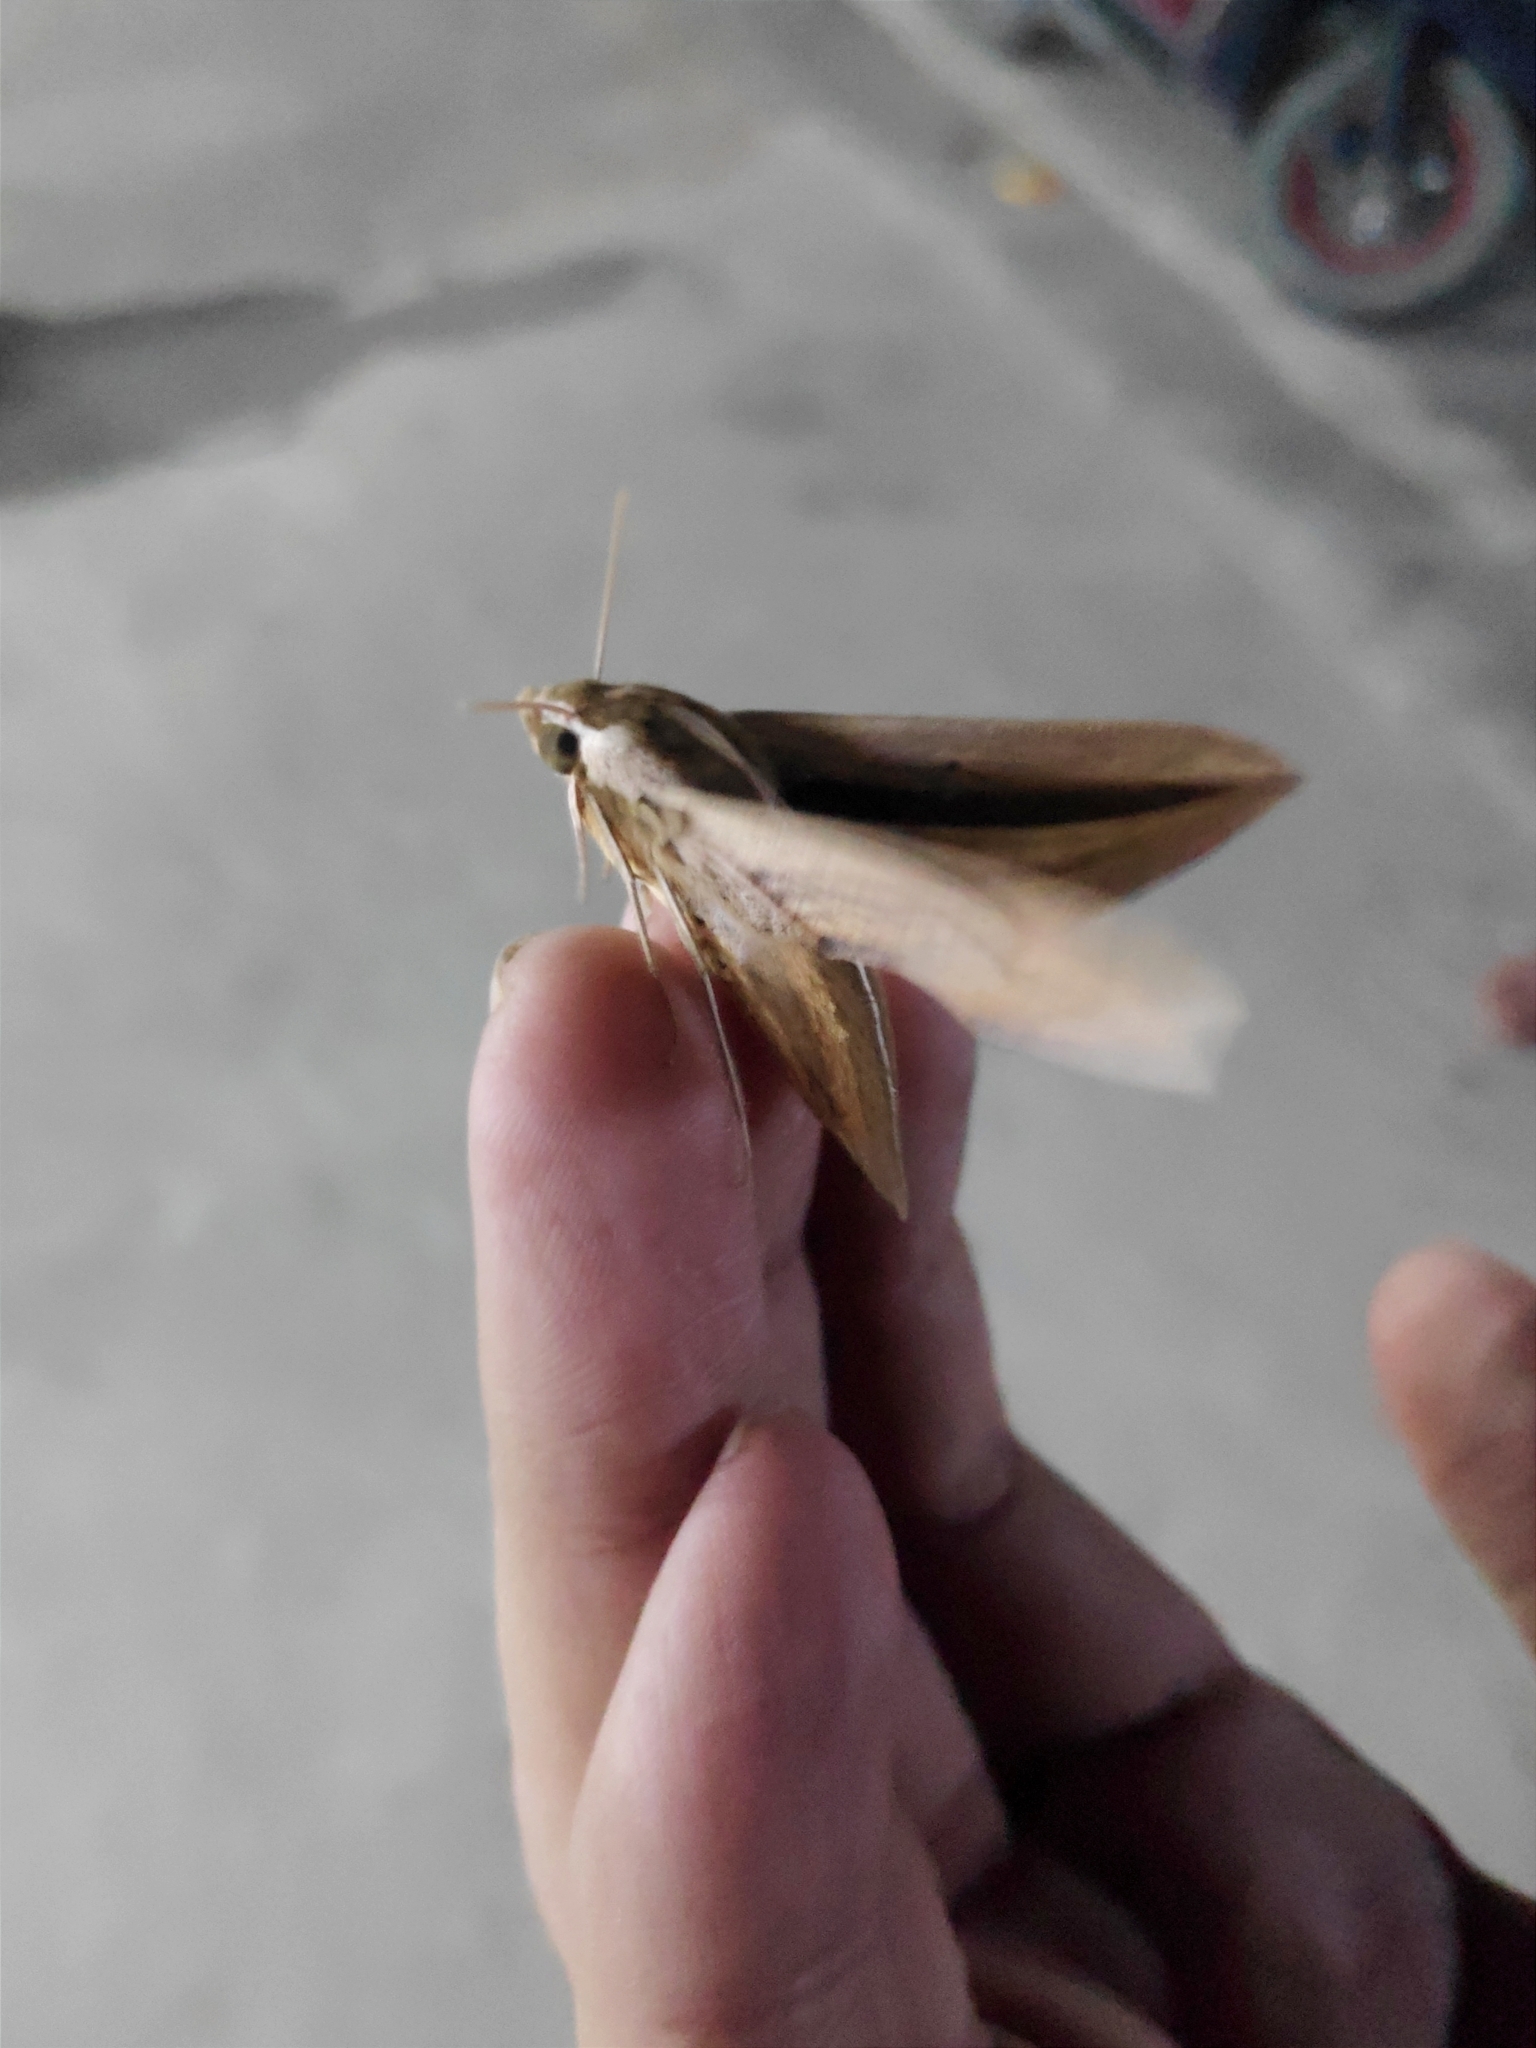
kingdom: Animalia
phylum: Arthropoda
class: Insecta
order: Lepidoptera
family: Sphingidae
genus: Theretra
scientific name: Theretra silhetensis
